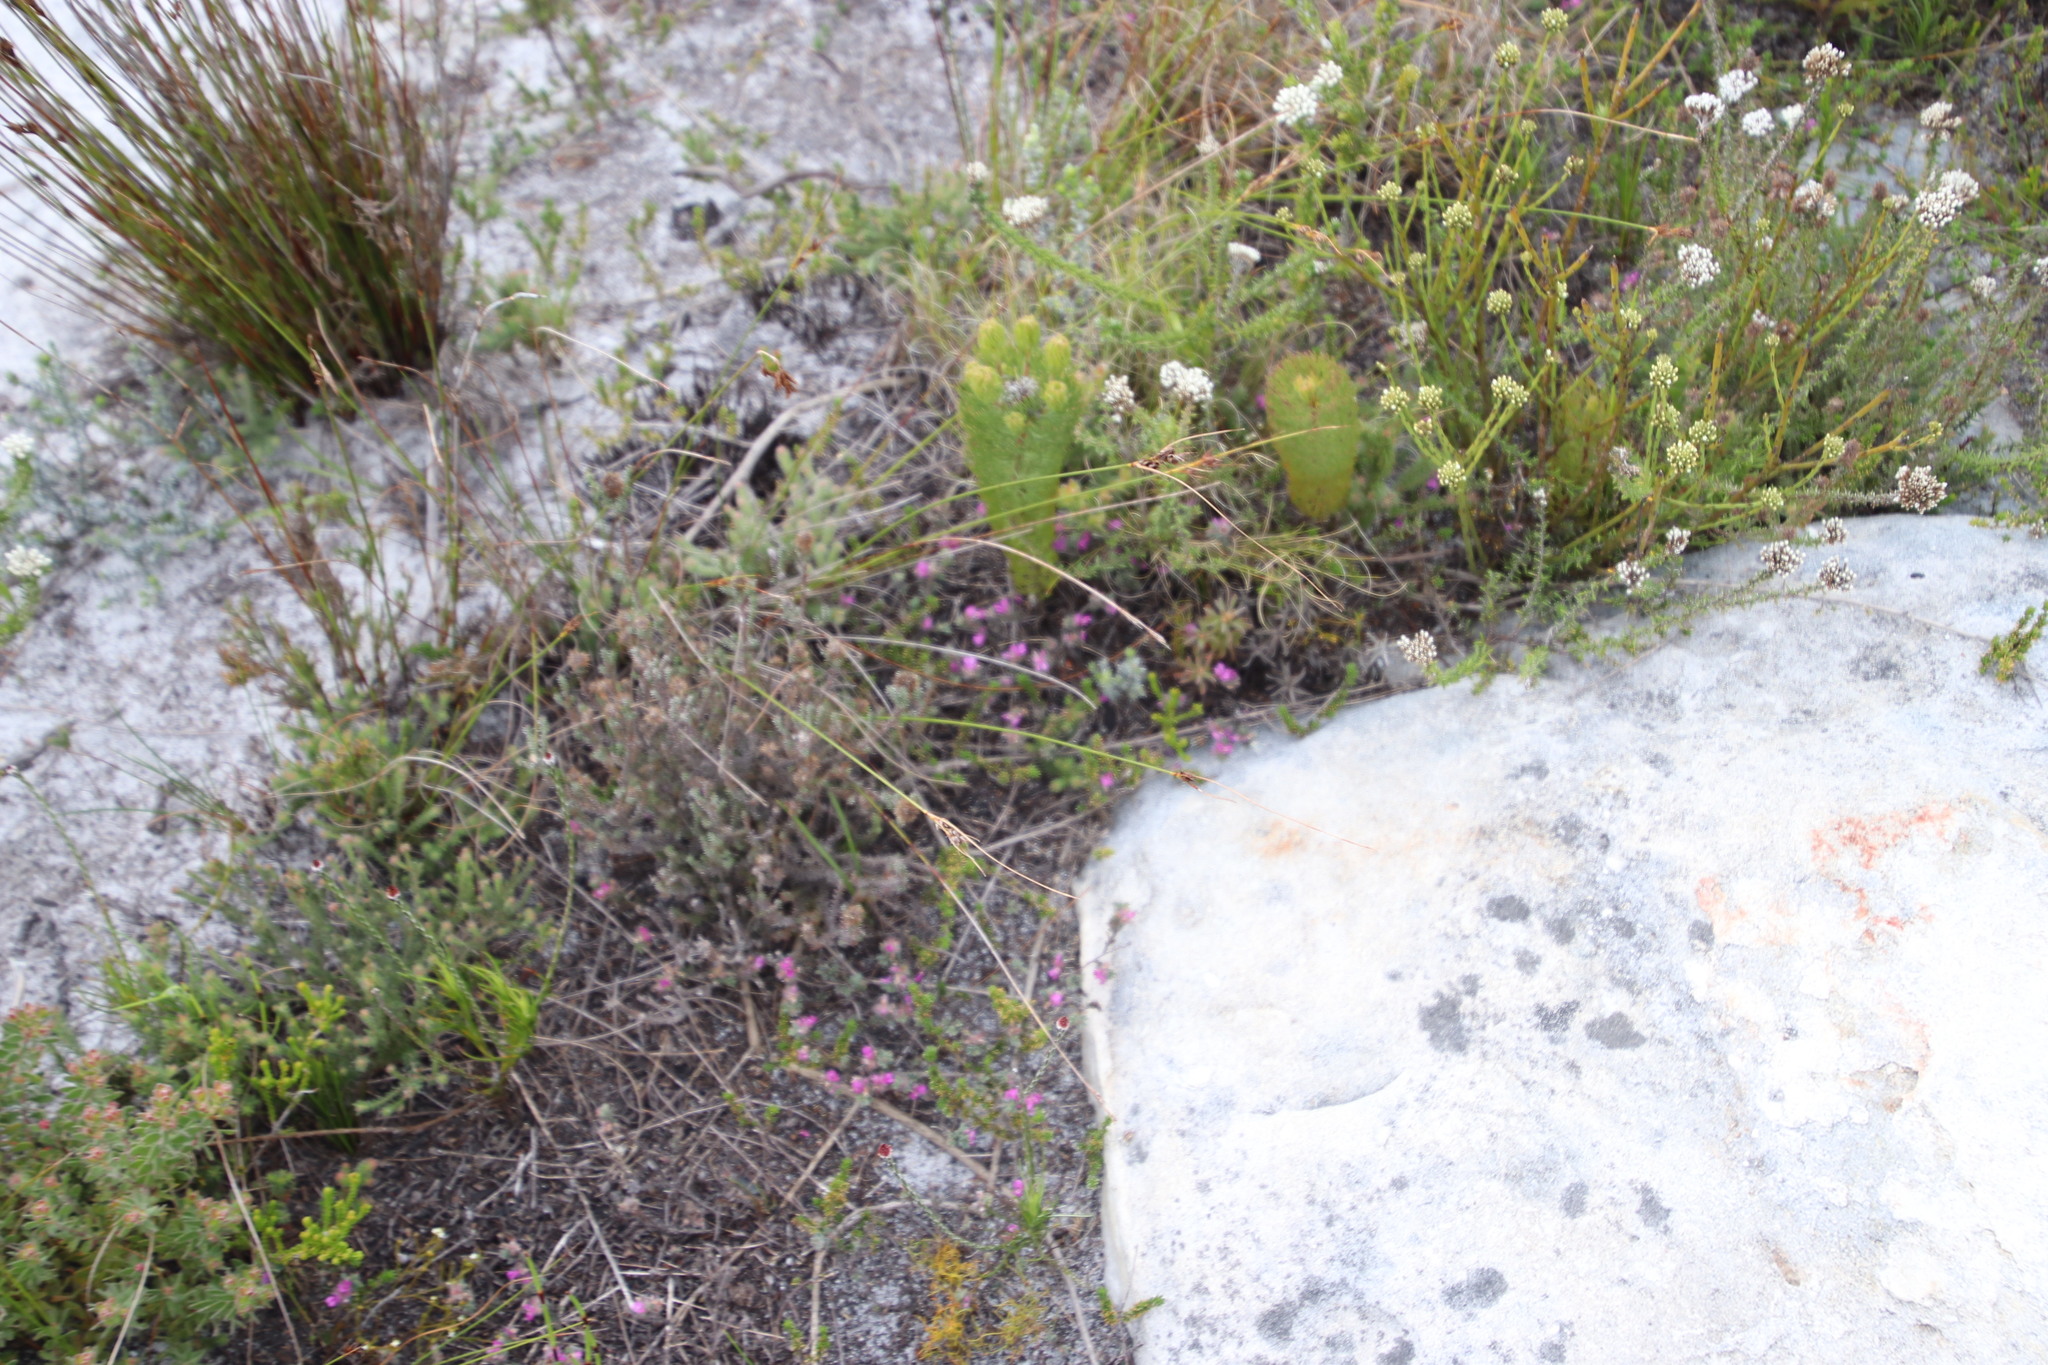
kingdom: Plantae
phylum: Tracheophyta
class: Magnoliopsida
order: Fabales
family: Fabaceae
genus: Indigofera
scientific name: Indigofera glomerata
